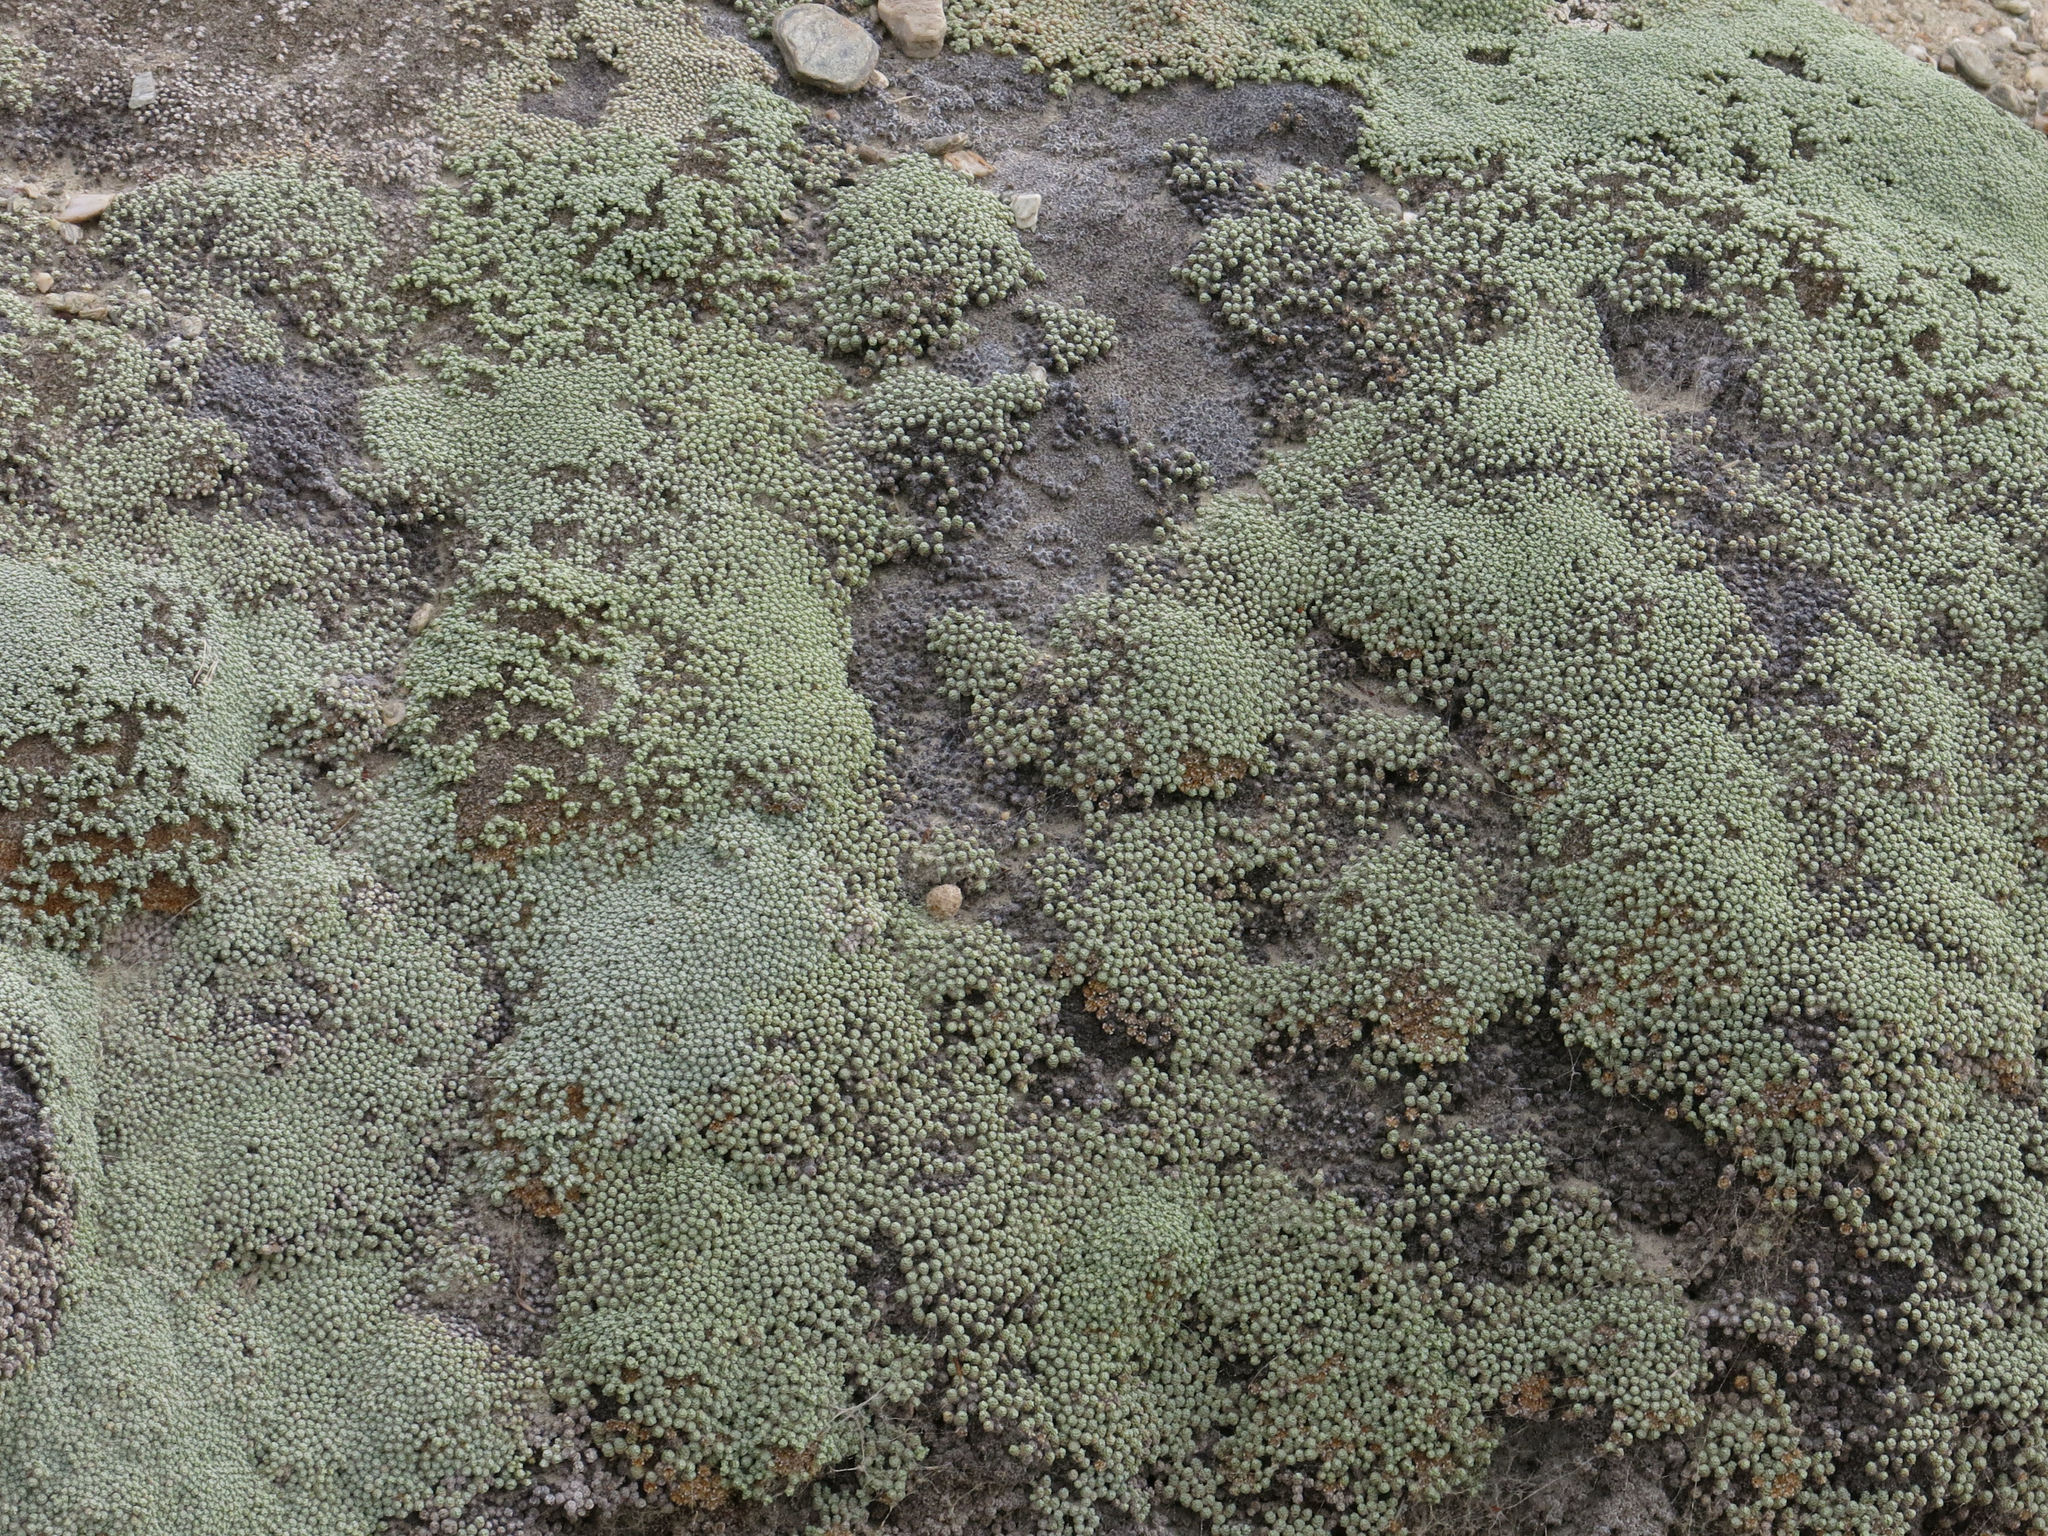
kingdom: Plantae
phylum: Tracheophyta
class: Magnoliopsida
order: Asterales
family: Asteraceae
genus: Raoulia
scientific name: Raoulia australis
